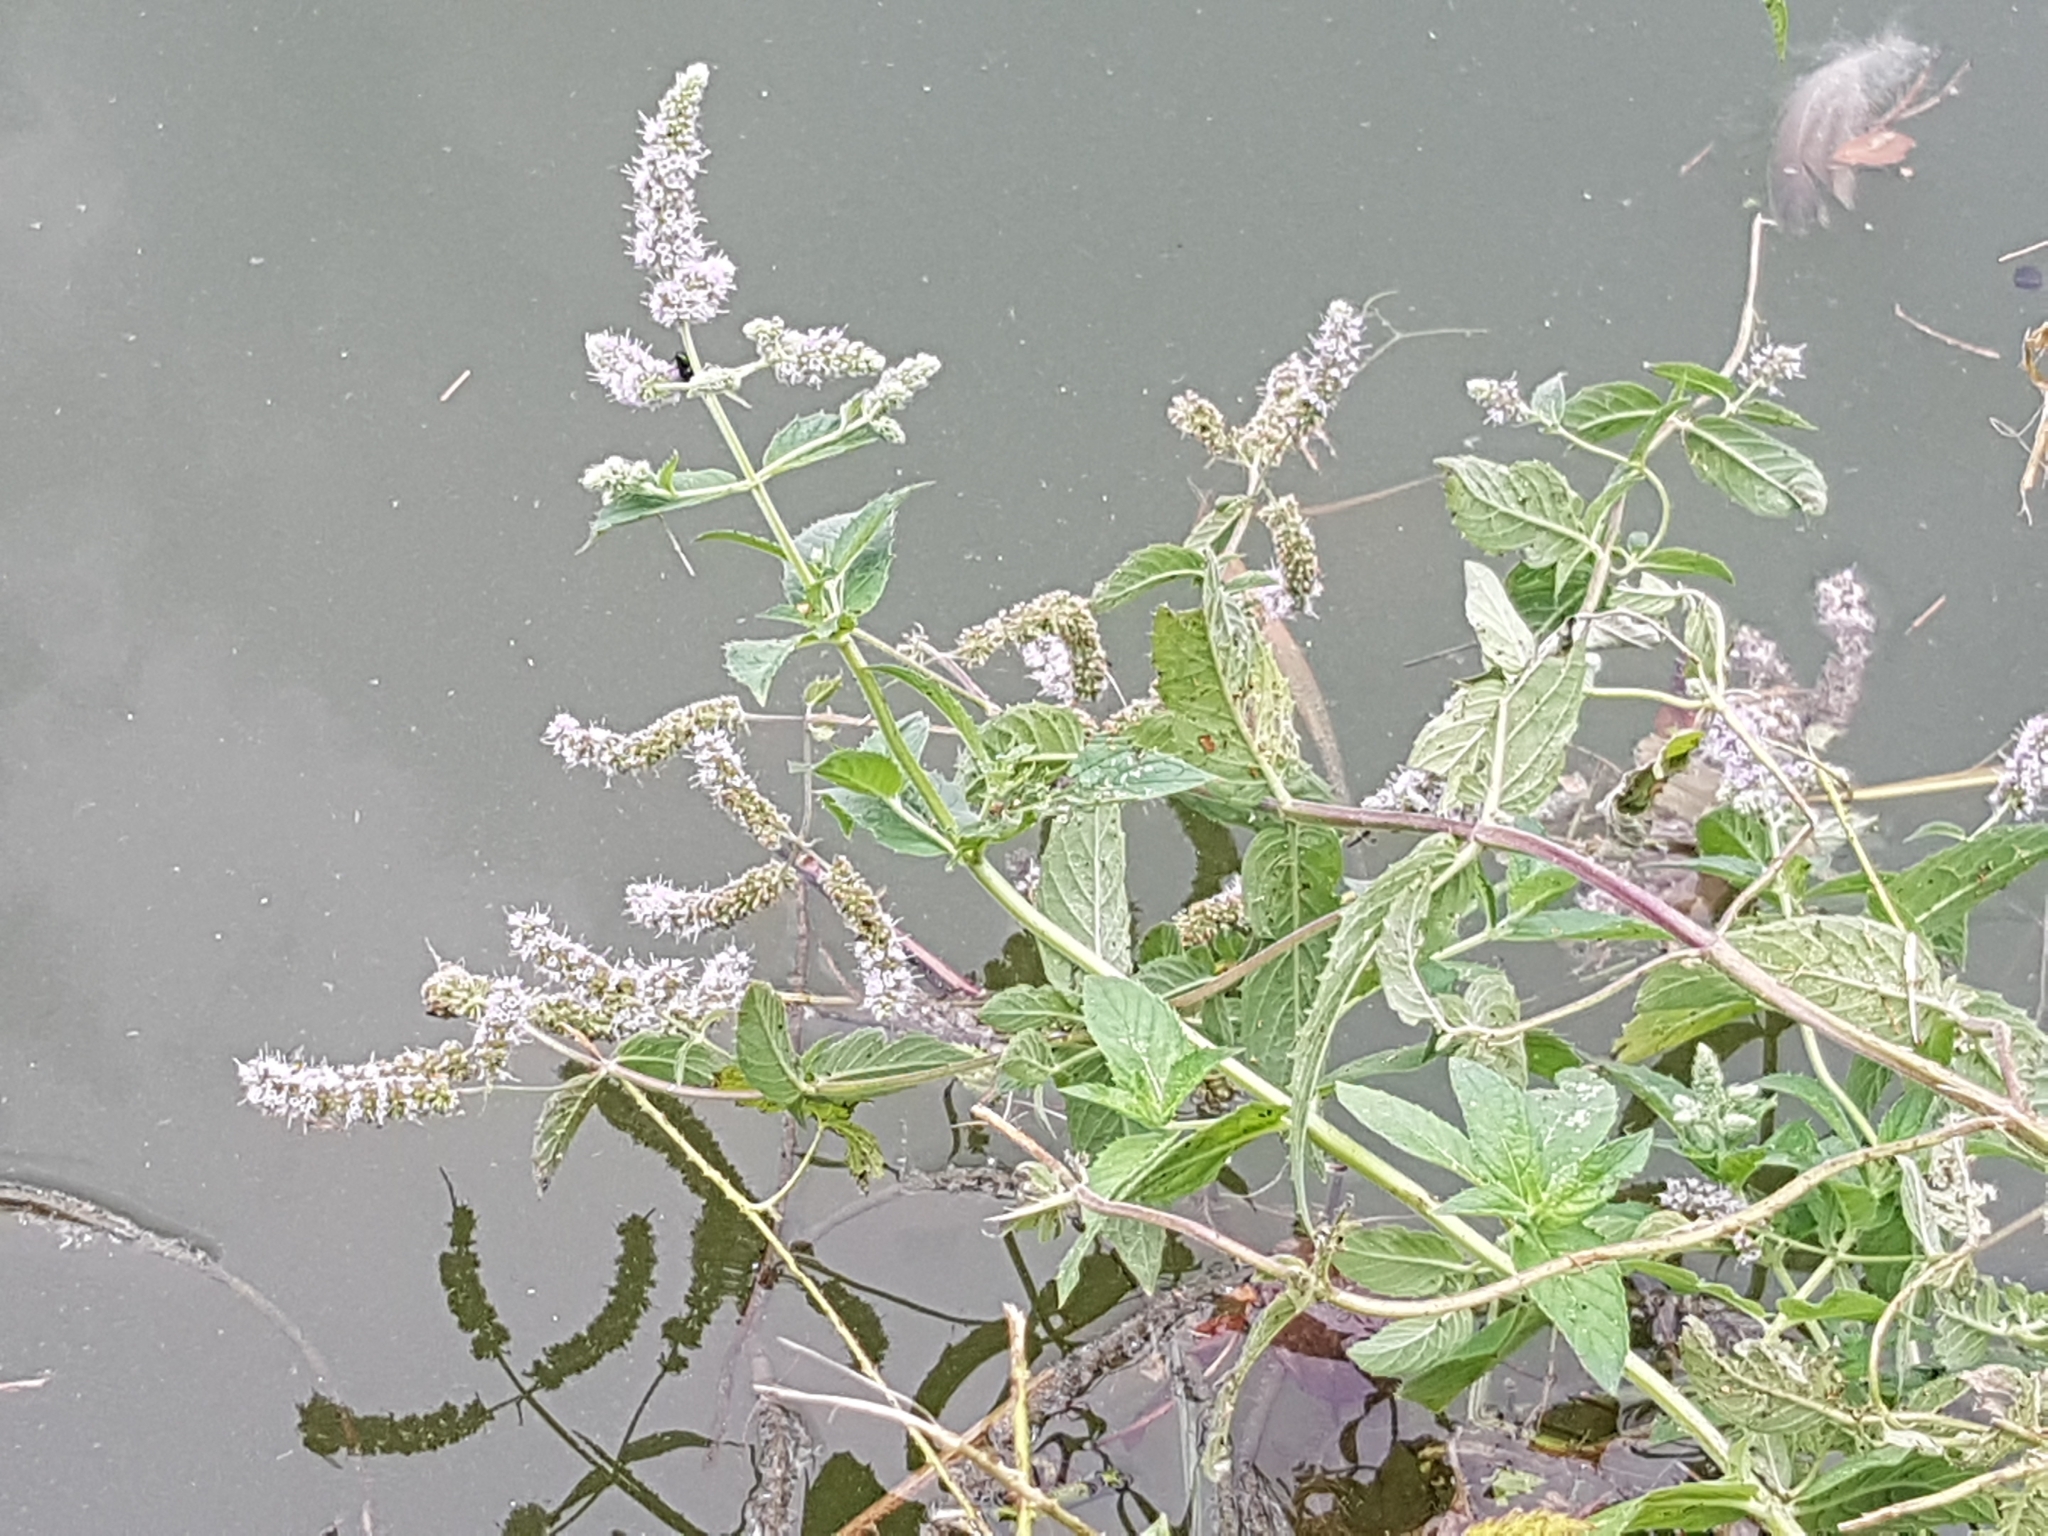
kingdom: Plantae
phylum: Tracheophyta
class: Magnoliopsida
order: Lamiales
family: Lamiaceae
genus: Mentha
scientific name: Mentha longifolia
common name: Horse mint
